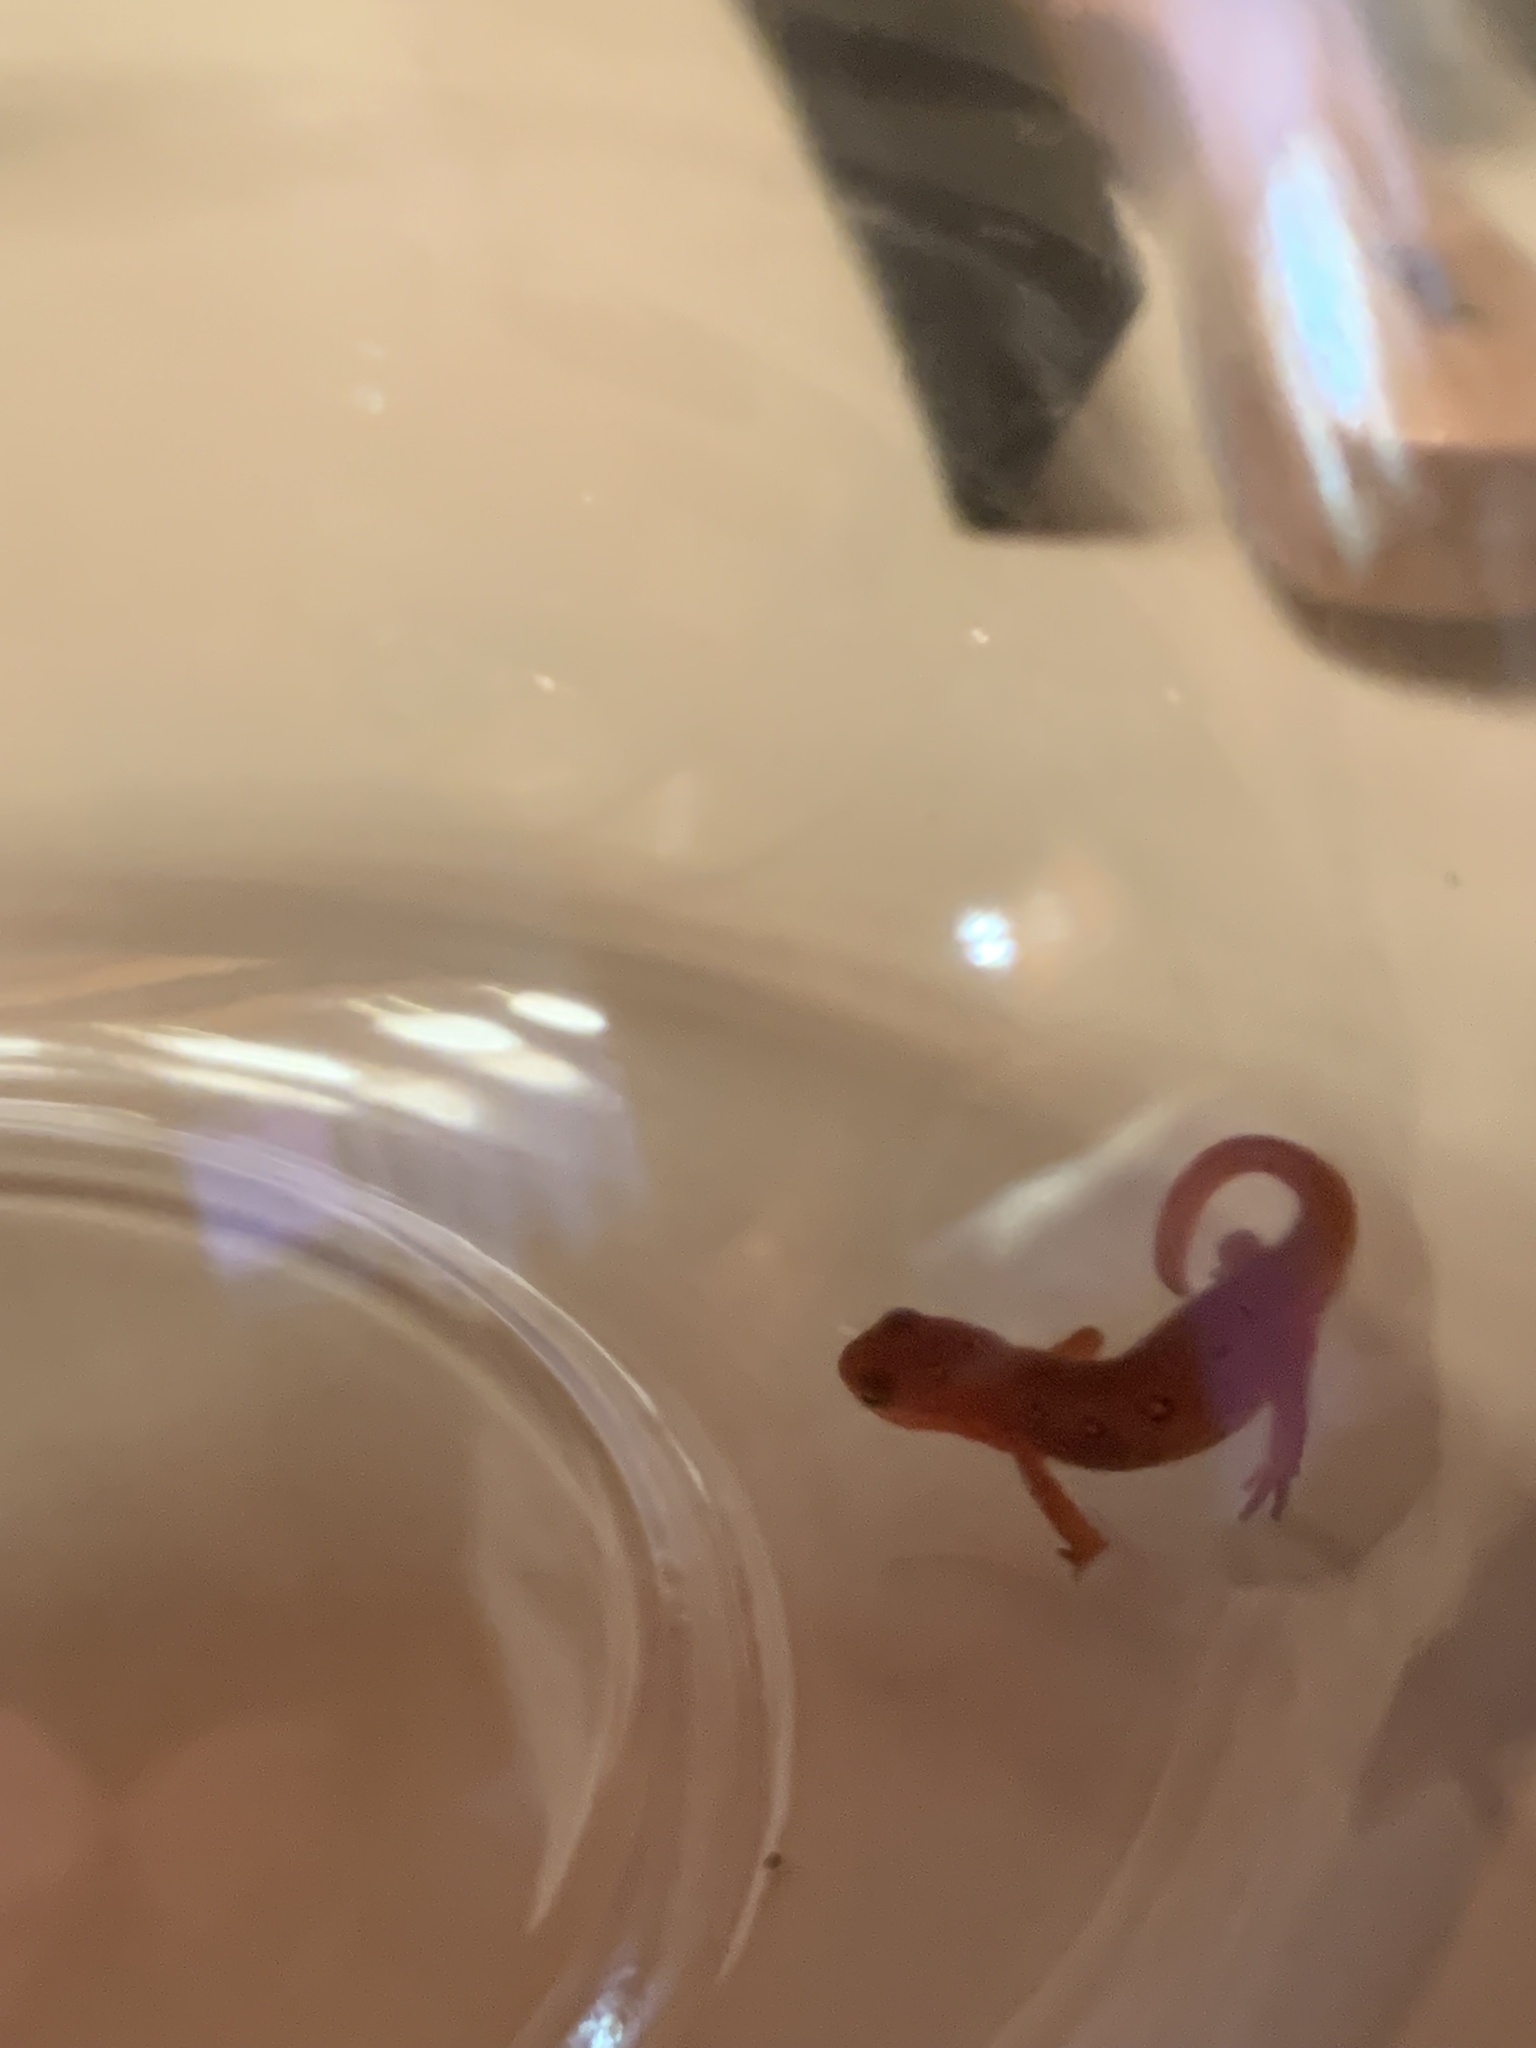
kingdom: Animalia
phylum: Chordata
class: Amphibia
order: Caudata
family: Salamandridae
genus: Notophthalmus
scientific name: Notophthalmus viridescens
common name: Eastern newt
